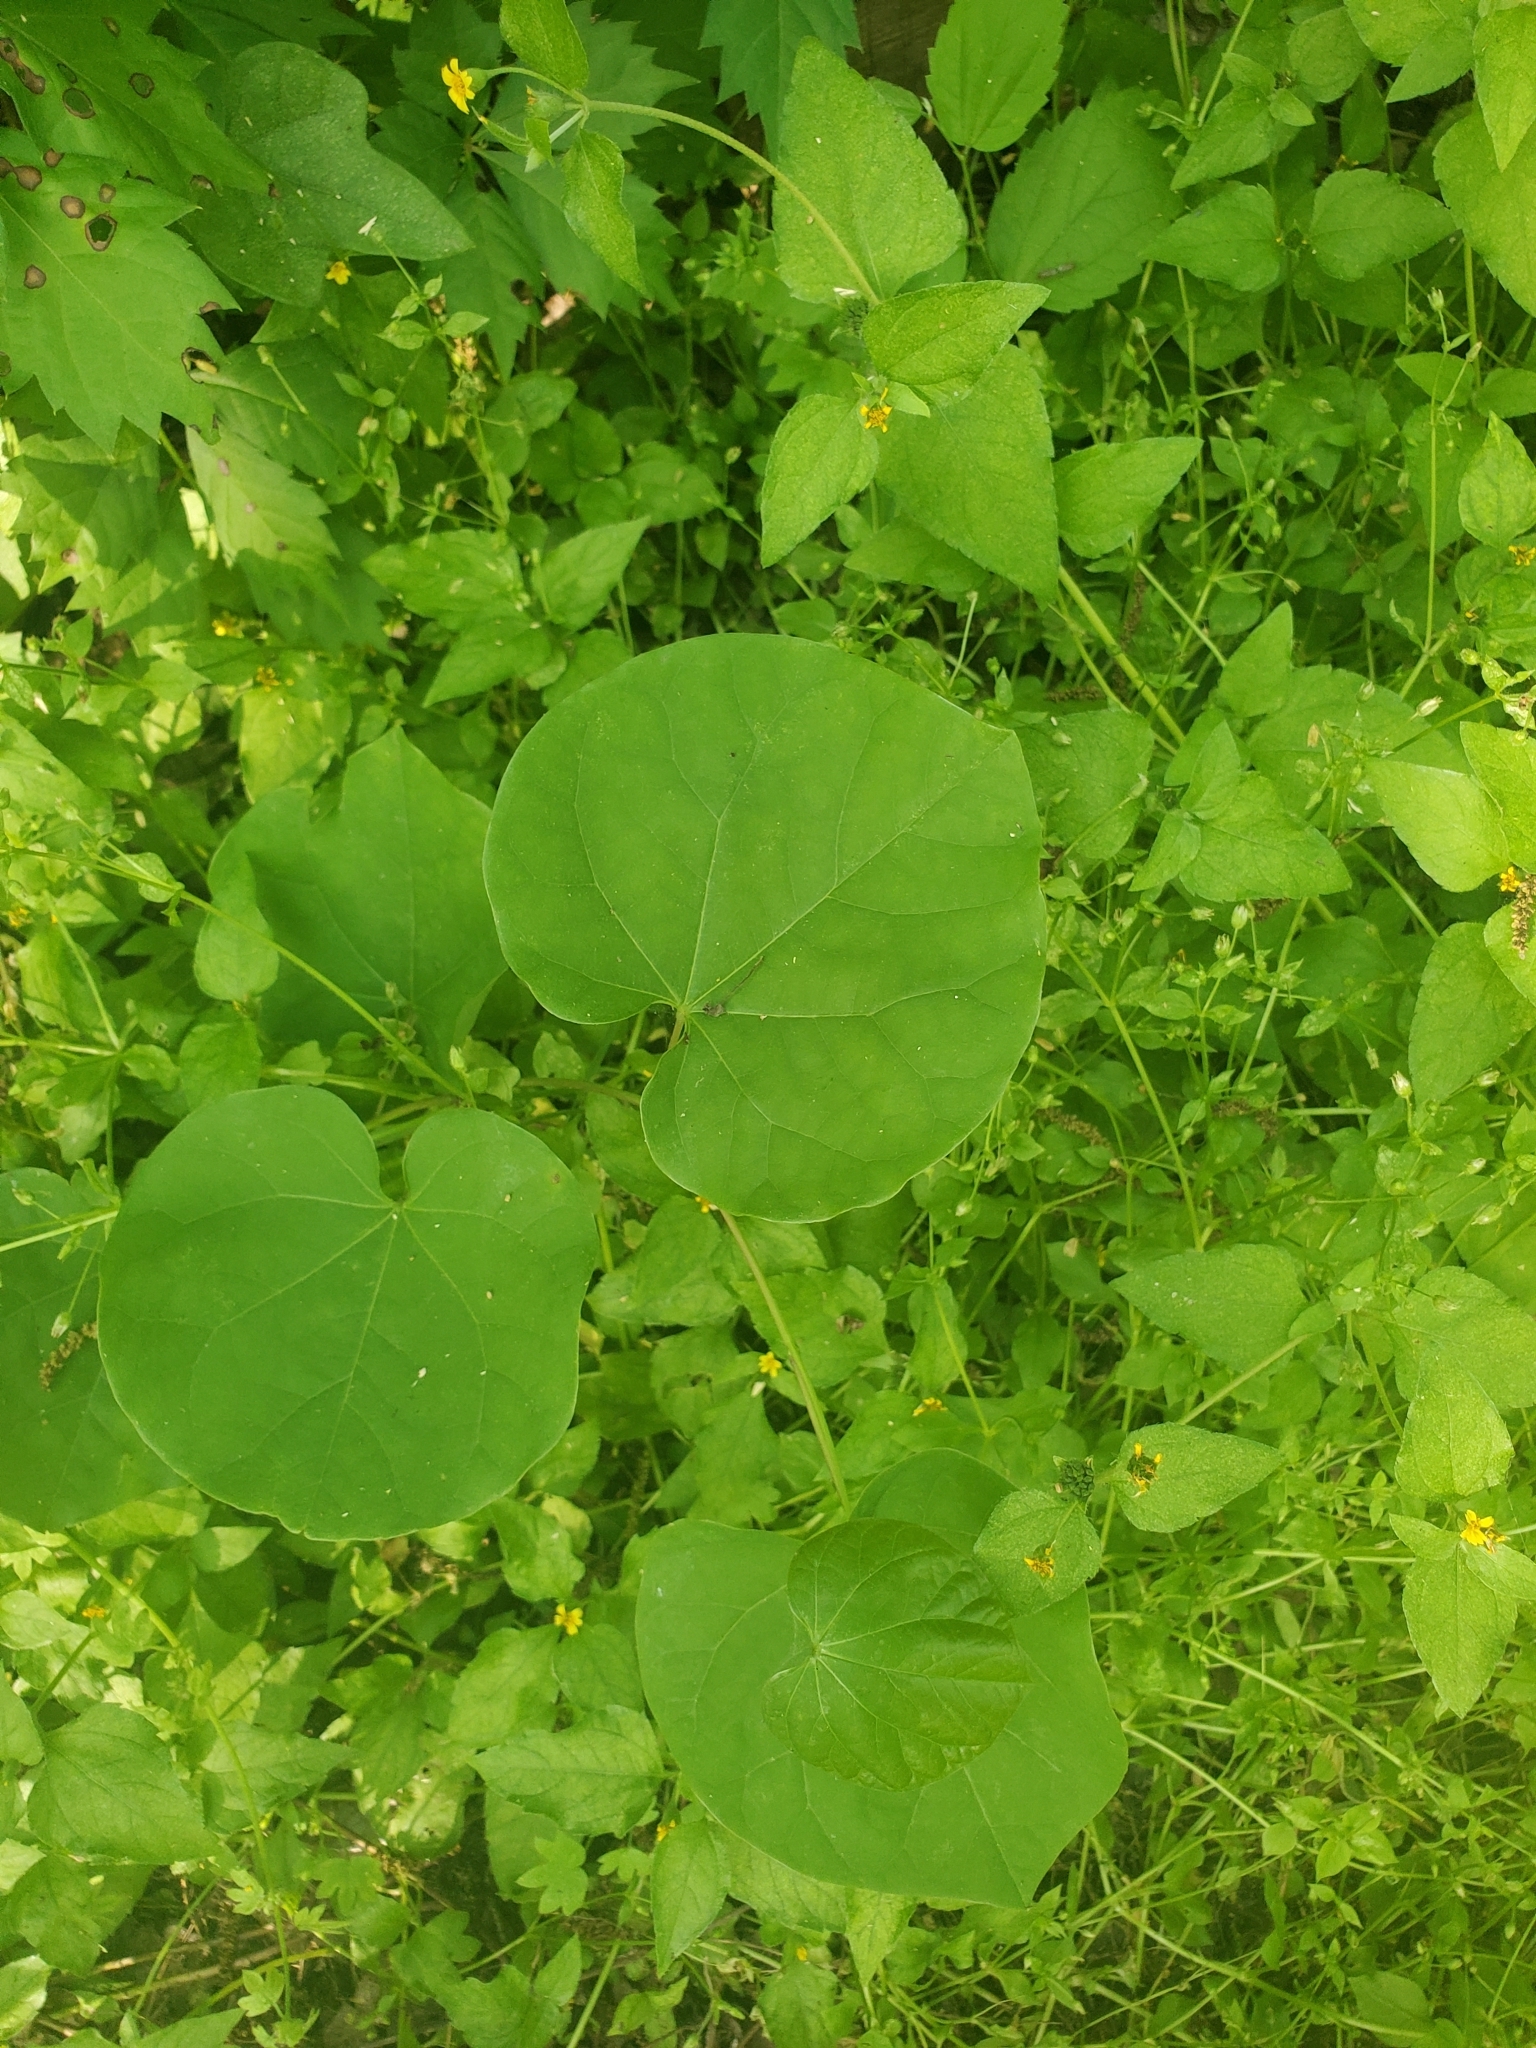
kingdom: Plantae
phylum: Tracheophyta
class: Magnoliopsida
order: Fabales
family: Fabaceae
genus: Cercis
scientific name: Cercis canadensis
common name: Eastern redbud
